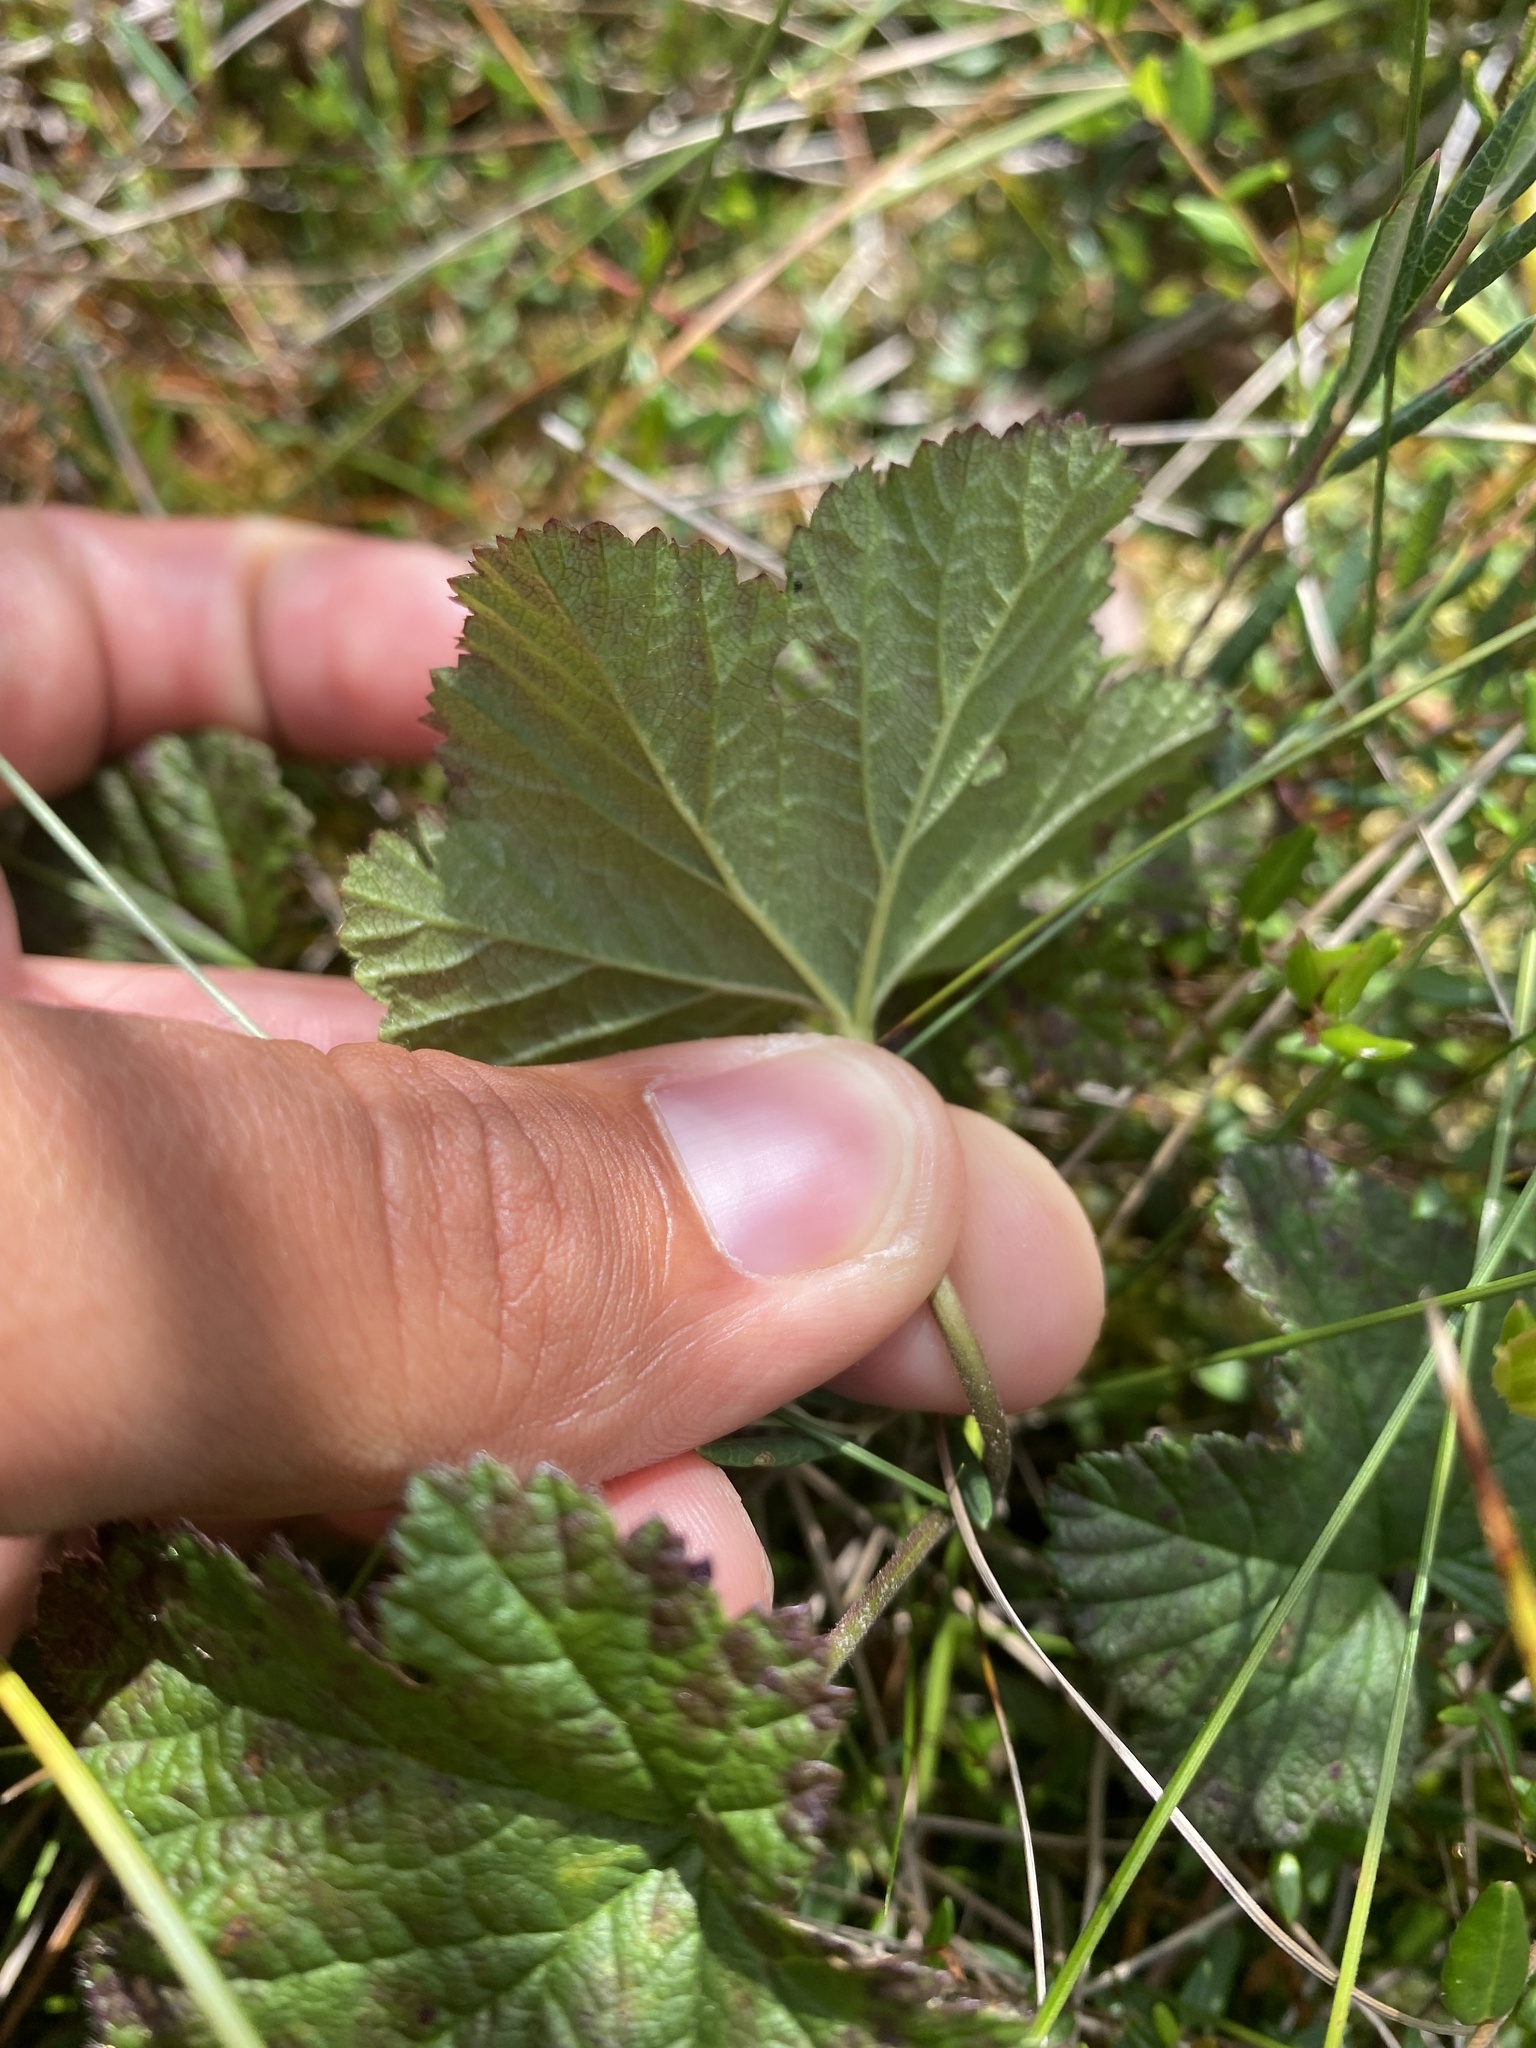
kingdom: Plantae
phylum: Tracheophyta
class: Magnoliopsida
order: Rosales
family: Rosaceae
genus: Rubus
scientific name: Rubus chamaemorus
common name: Cloudberry
